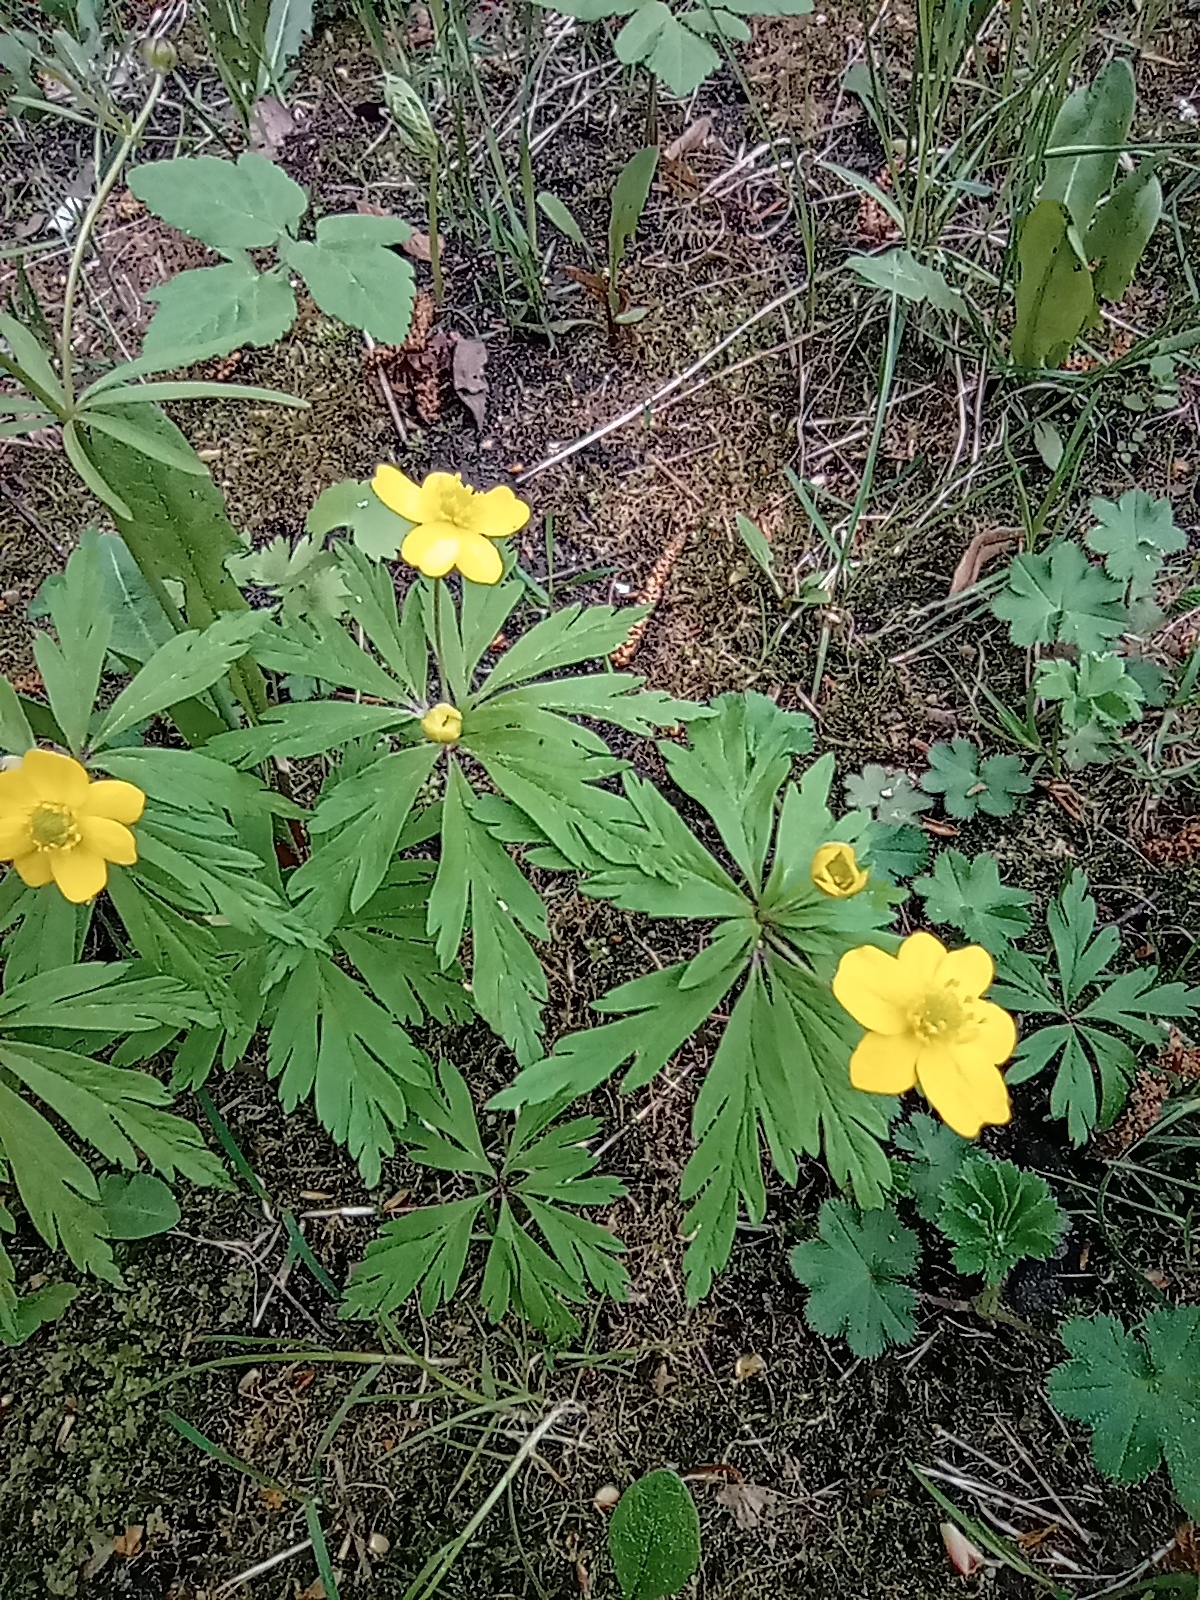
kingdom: Plantae
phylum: Tracheophyta
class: Magnoliopsida
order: Ranunculales
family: Ranunculaceae
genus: Anemone
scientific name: Anemone ranunculoides
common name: Yellow anemone
